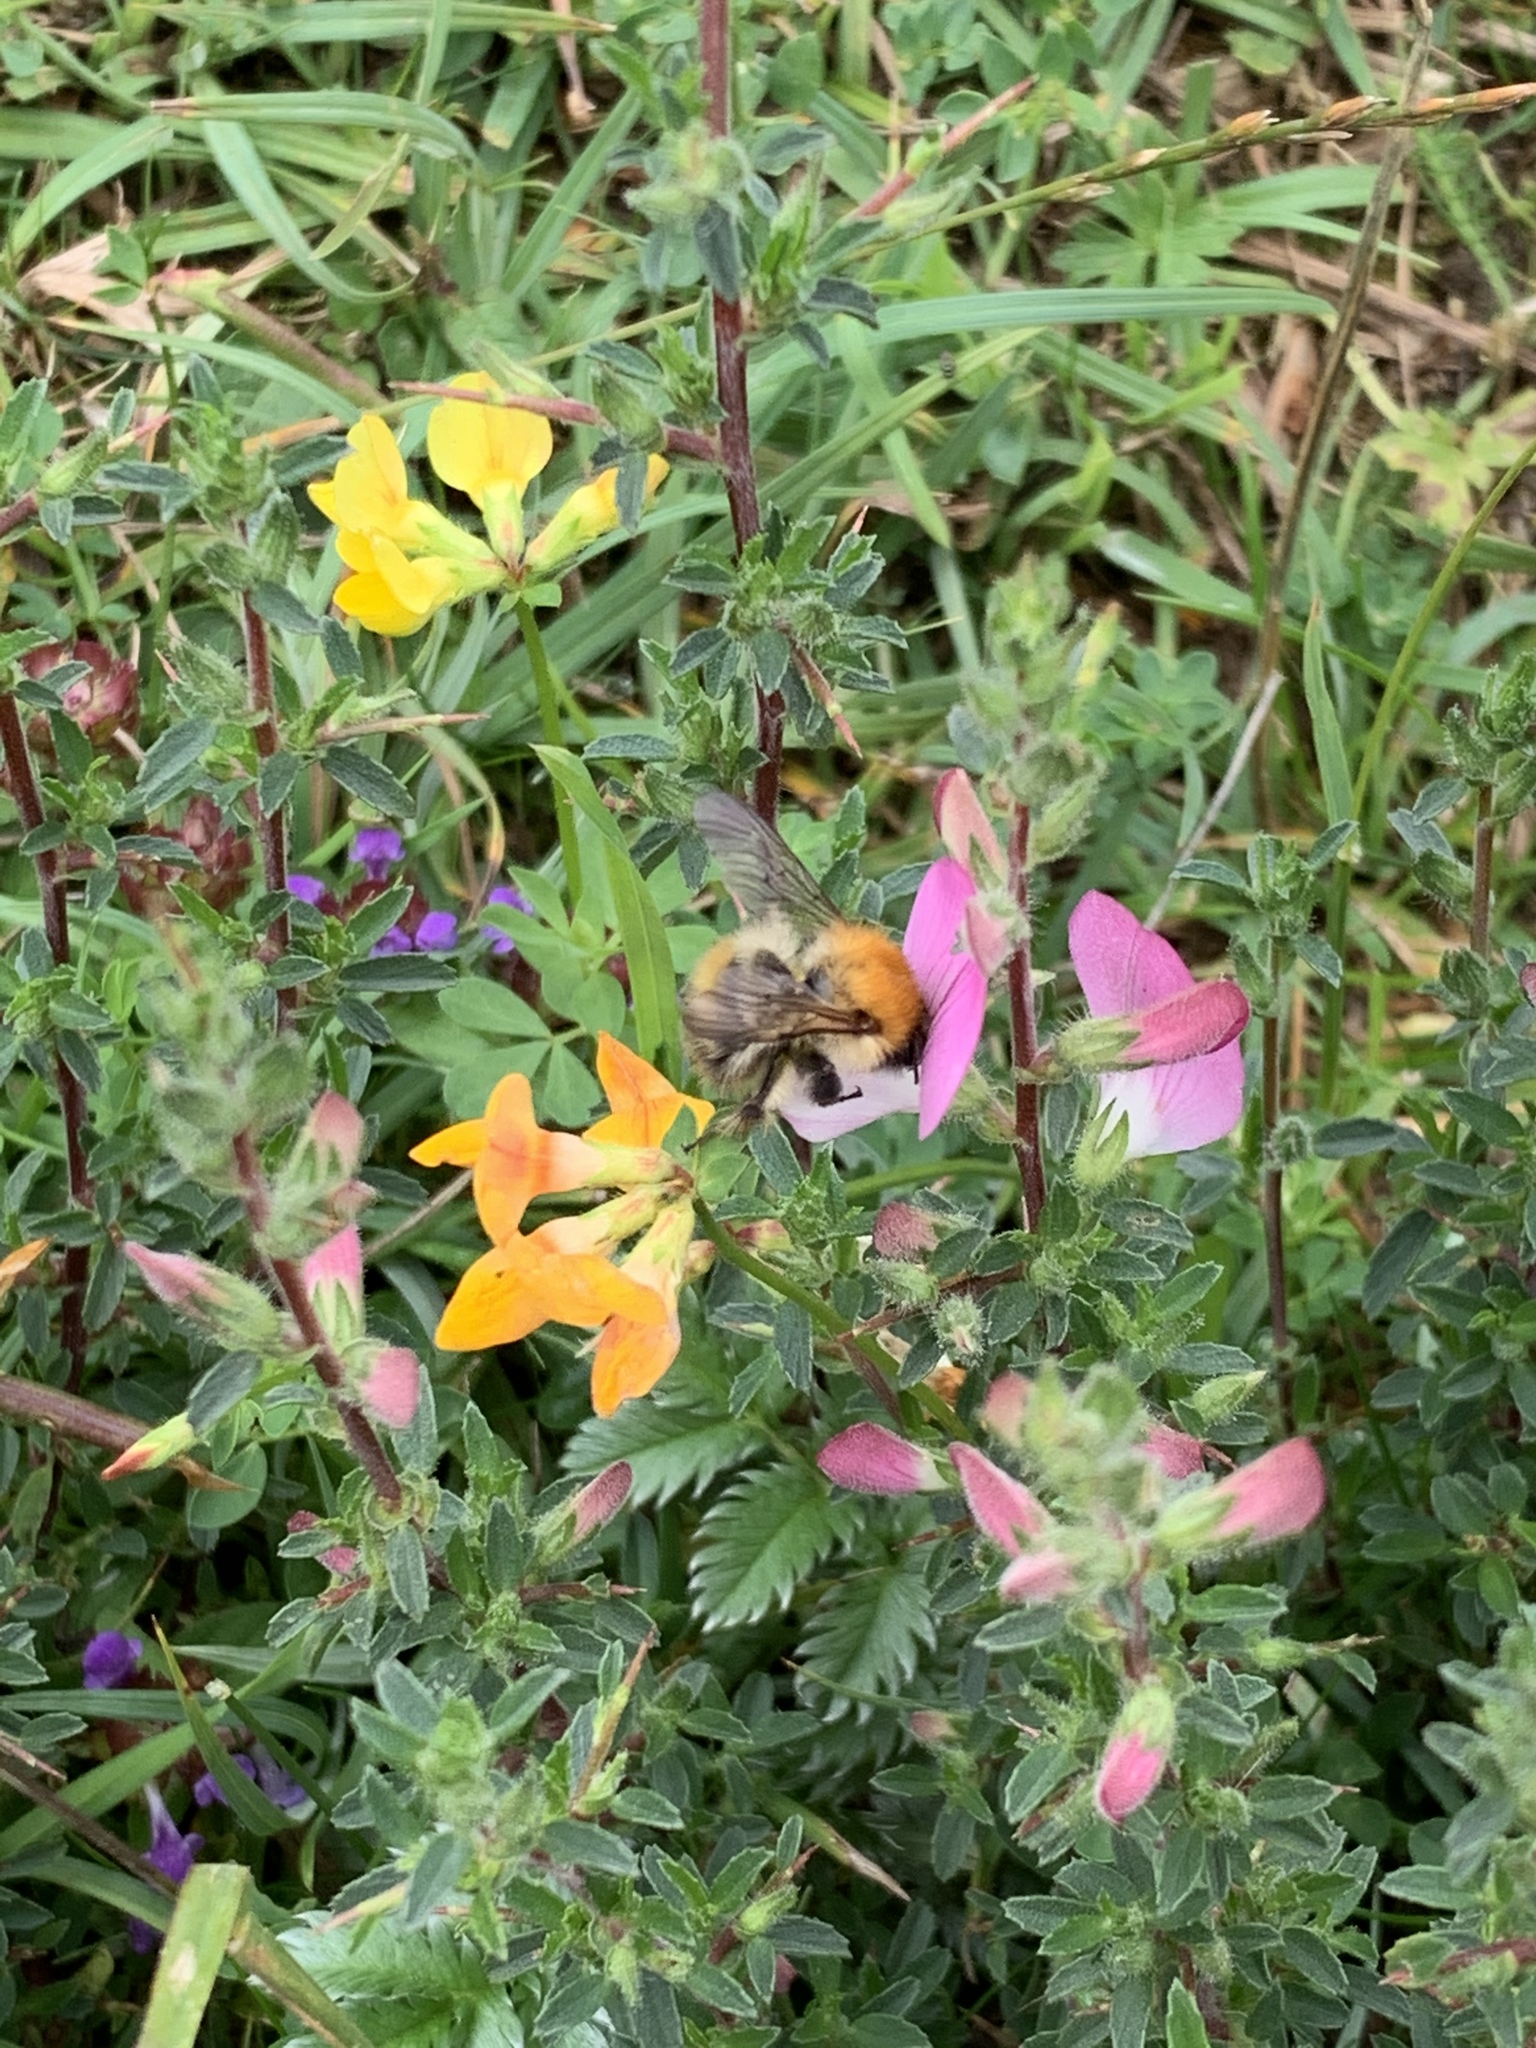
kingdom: Animalia
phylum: Arthropoda
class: Insecta
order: Hymenoptera
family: Apidae
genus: Bombus
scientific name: Bombus pascuorum
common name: Common carder bee
